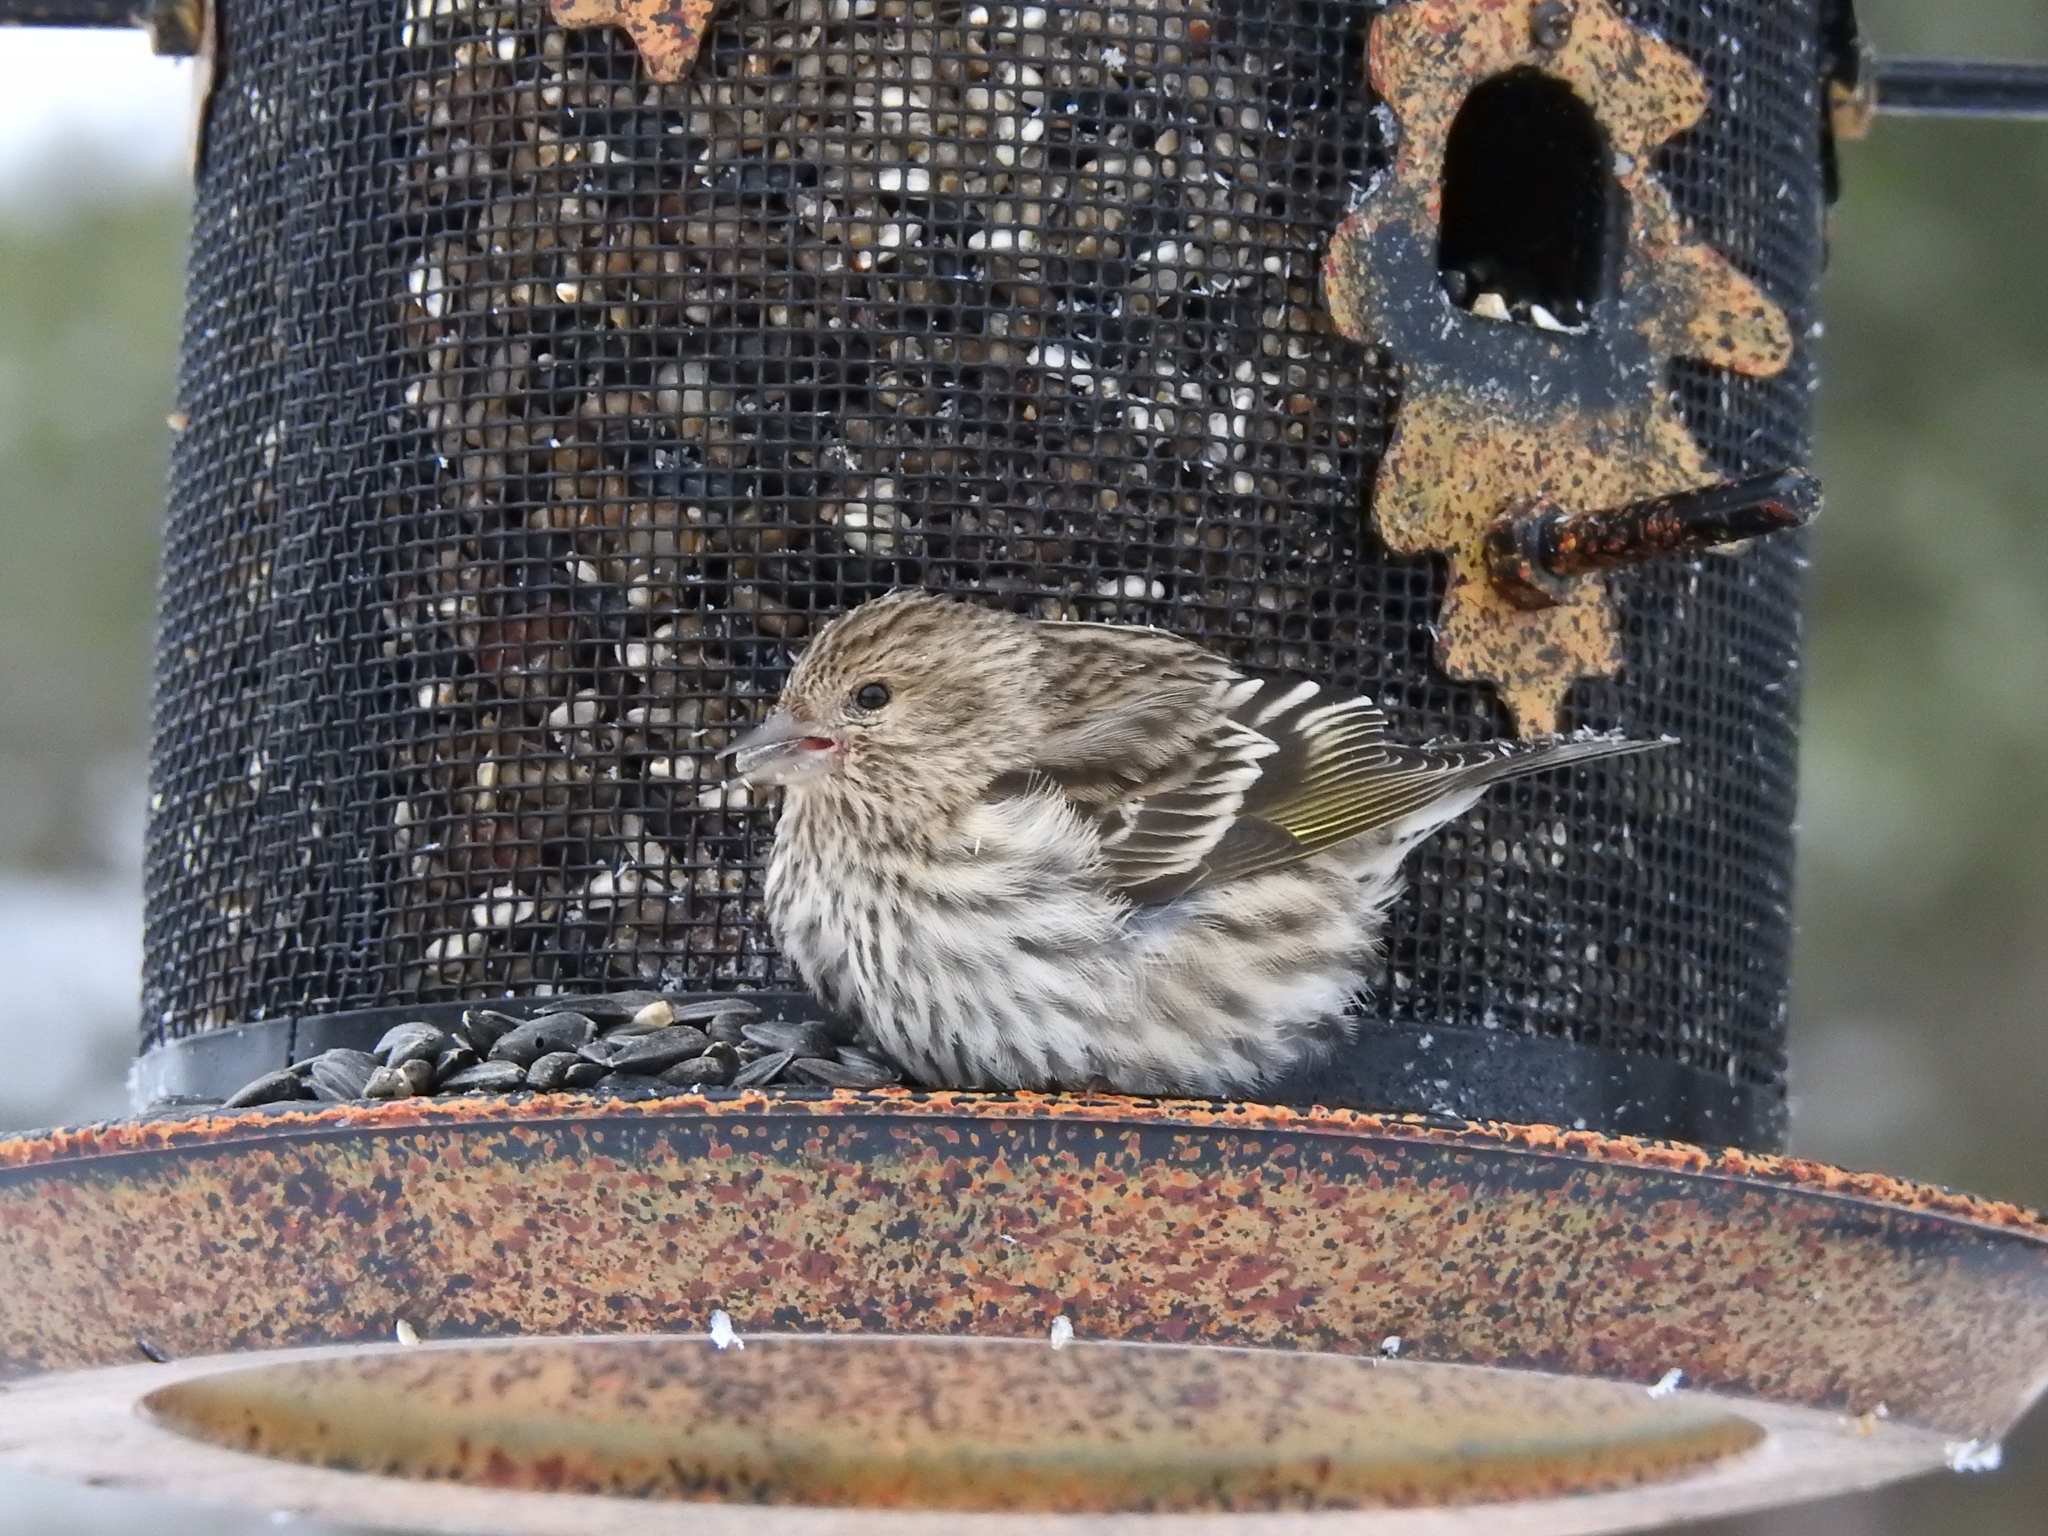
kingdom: Animalia
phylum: Chordata
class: Aves
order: Passeriformes
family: Fringillidae
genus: Spinus
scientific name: Spinus pinus
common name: Pine siskin
